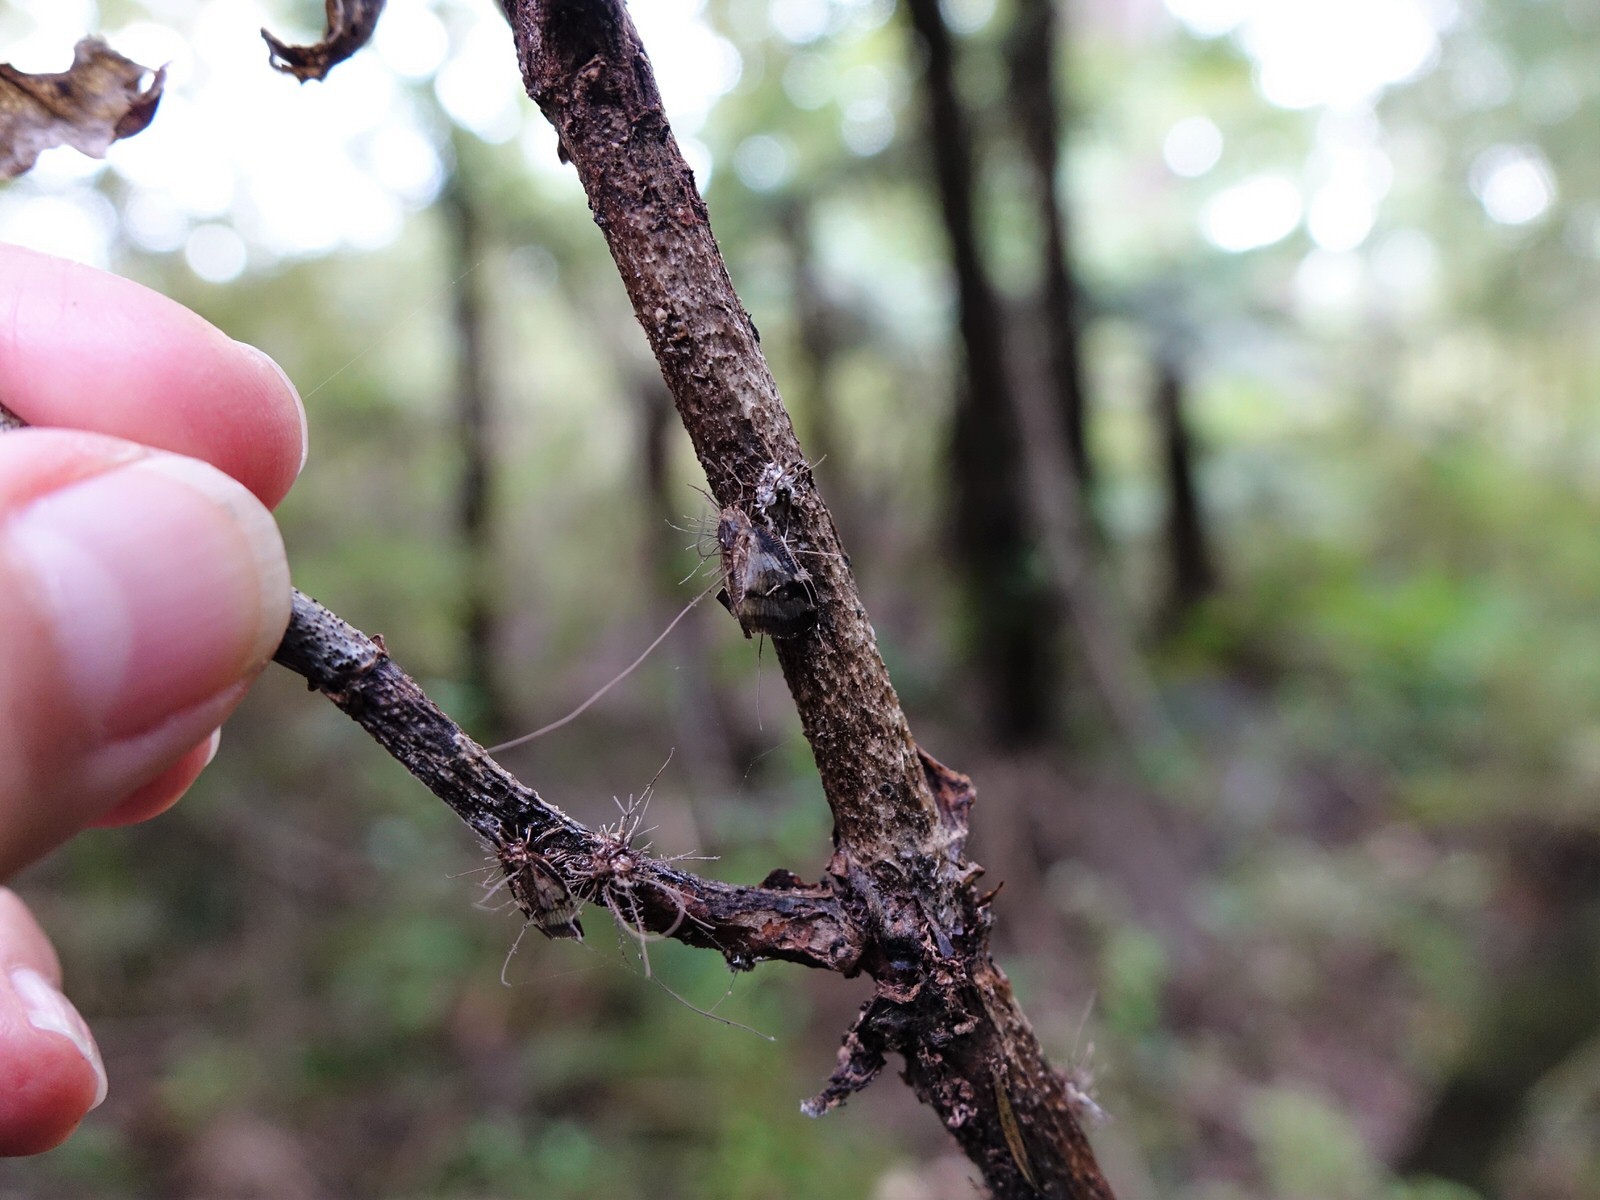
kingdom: Animalia
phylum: Arthropoda
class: Insecta
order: Hemiptera
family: Ricaniidae
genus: Scolypopa
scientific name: Scolypopa australis
